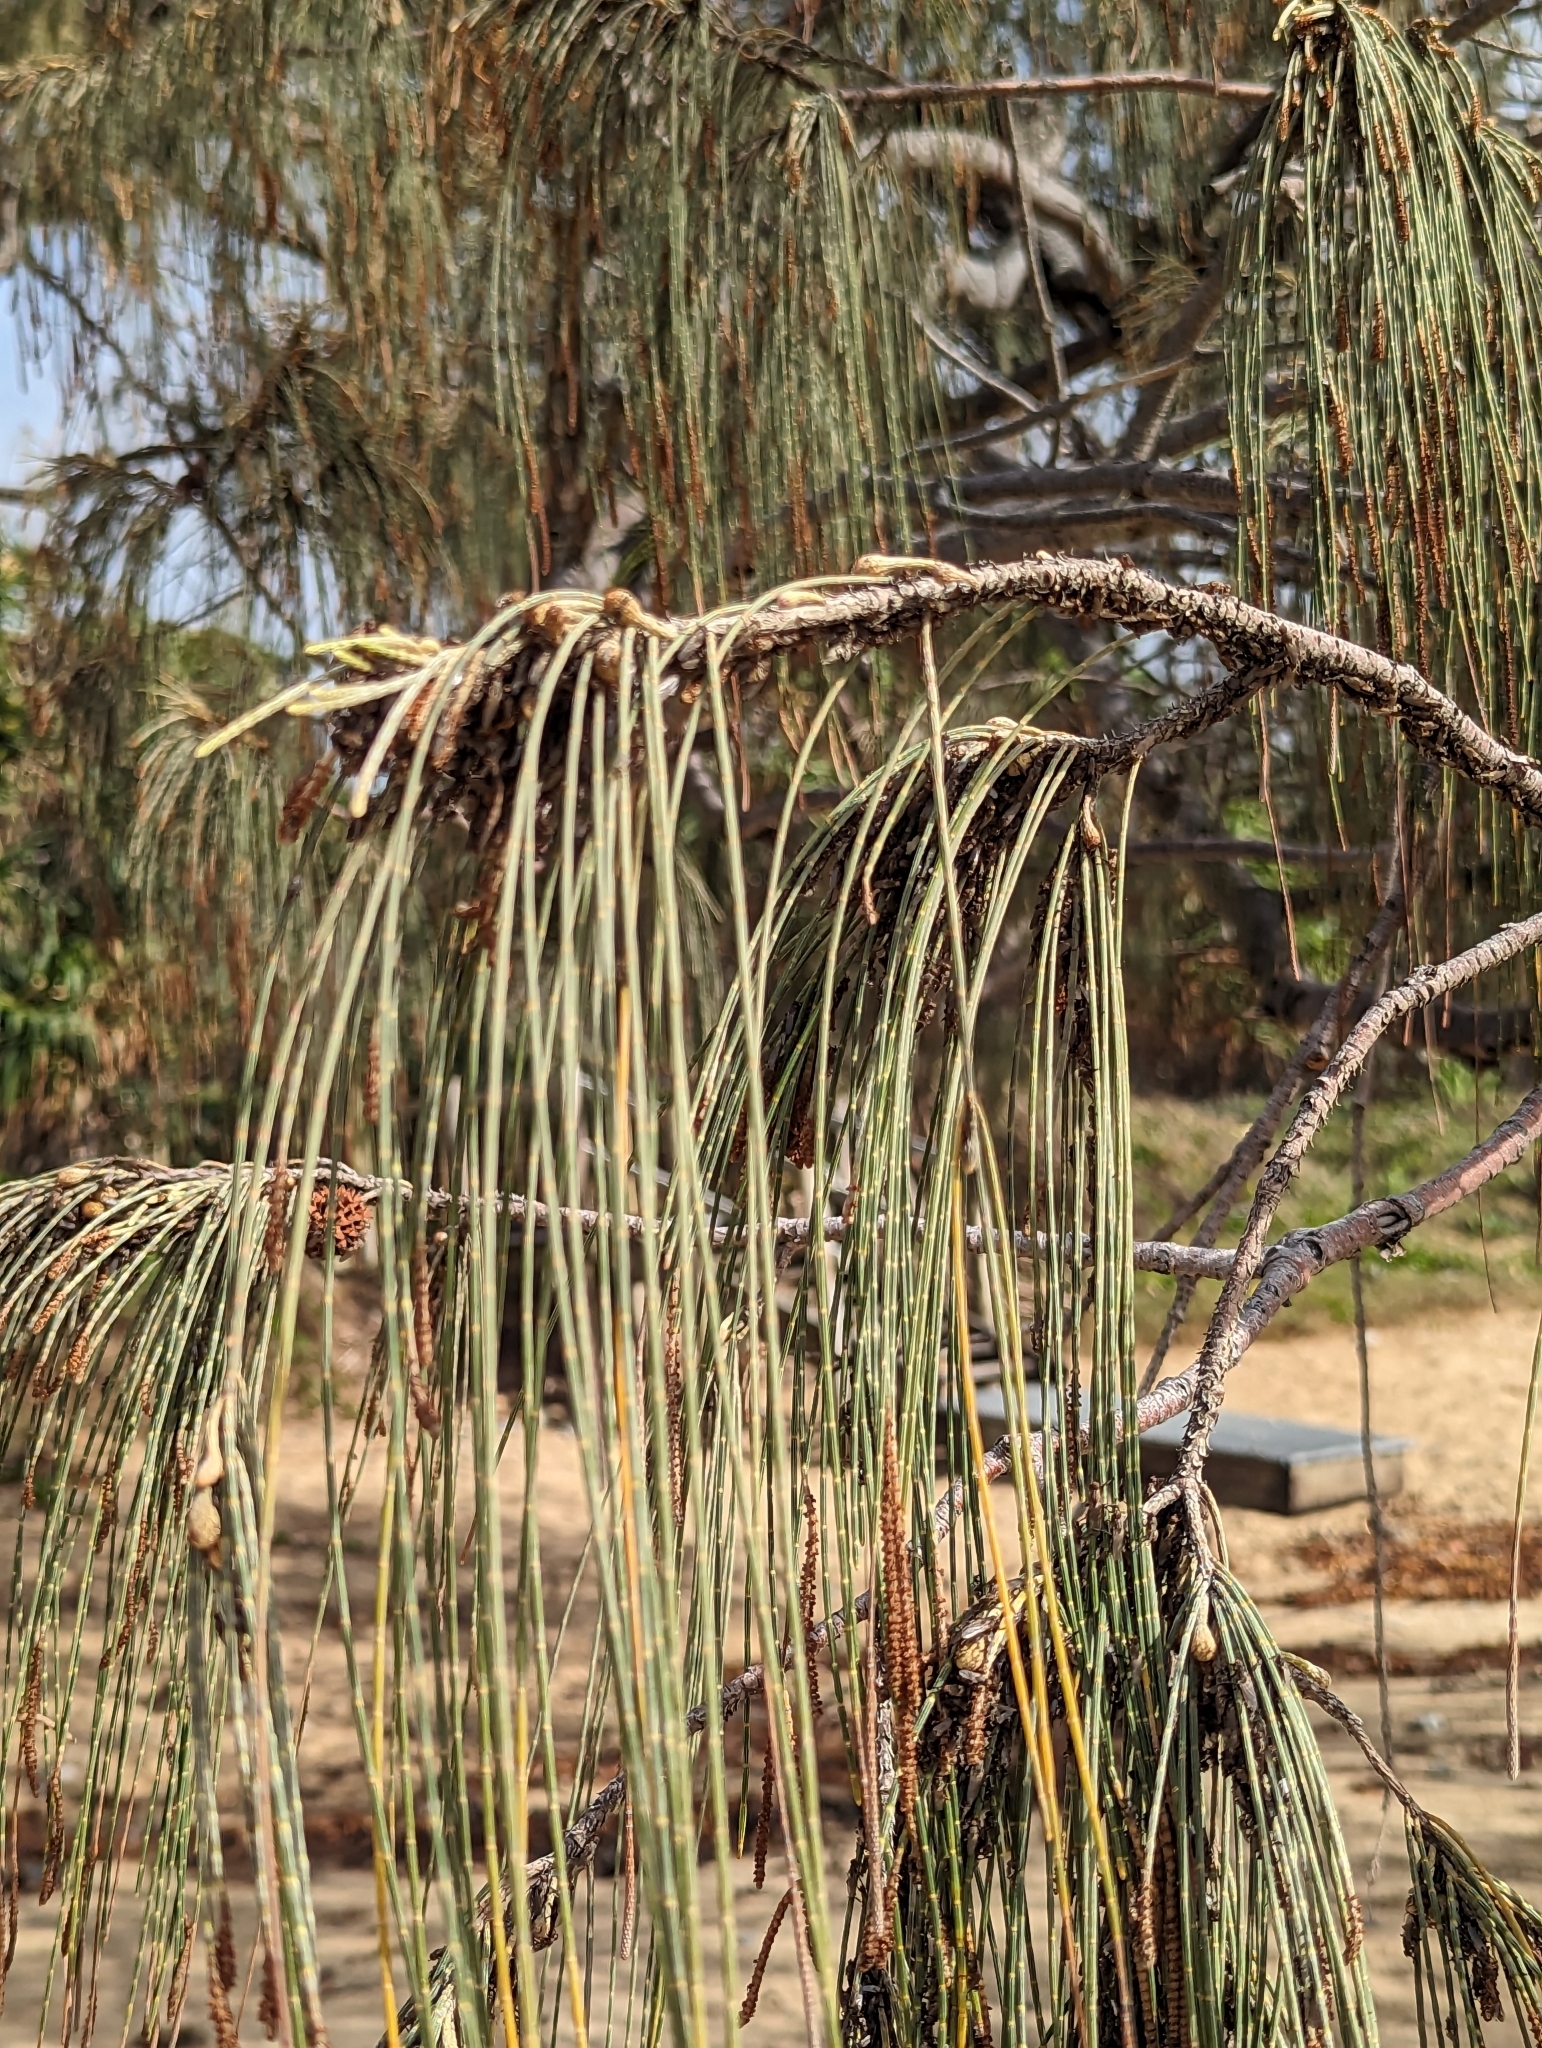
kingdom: Plantae
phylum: Tracheophyta
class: Magnoliopsida
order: Fagales
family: Casuarinaceae
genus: Casuarina
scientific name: Casuarina equisetifolia
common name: Beach sheoak
